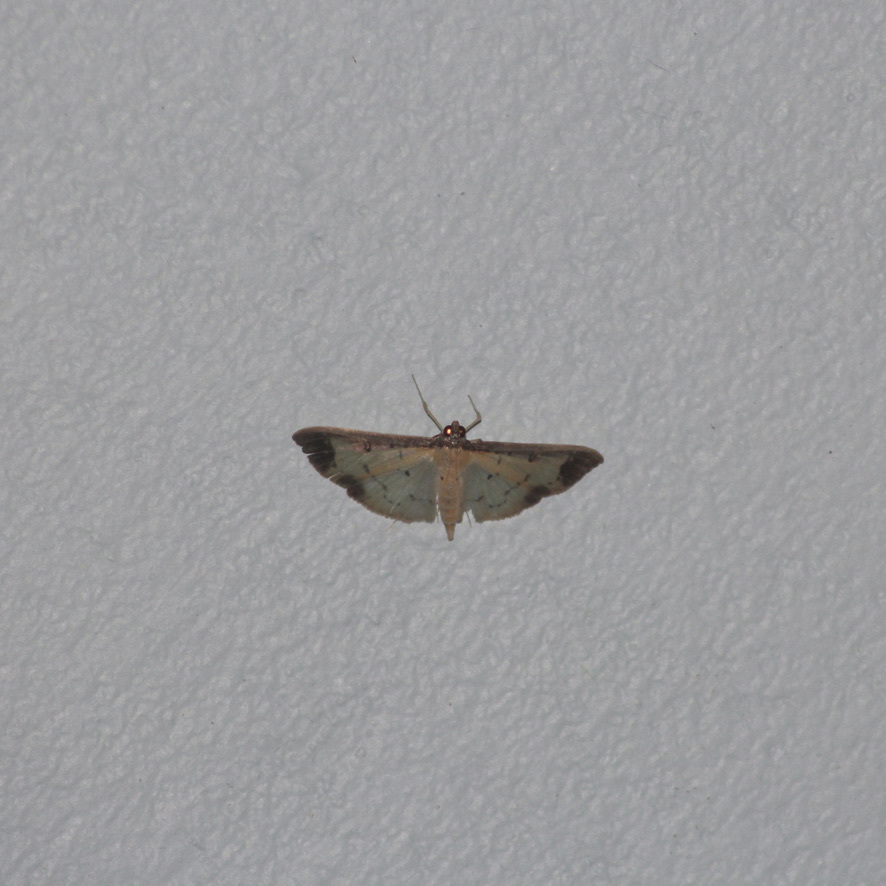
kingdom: Animalia
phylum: Arthropoda
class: Insecta
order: Lepidoptera
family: Crambidae
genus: Eulepte
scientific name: Eulepte concordalis
